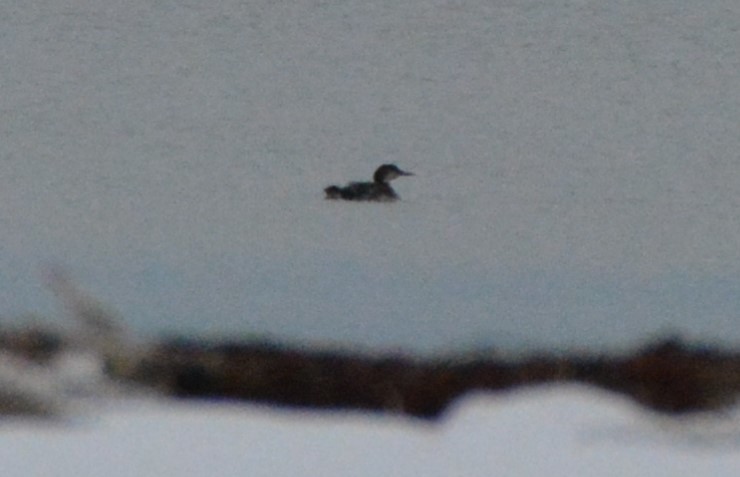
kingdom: Animalia
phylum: Chordata
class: Aves
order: Gaviiformes
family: Gaviidae
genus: Gavia
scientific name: Gavia immer
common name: Common loon
